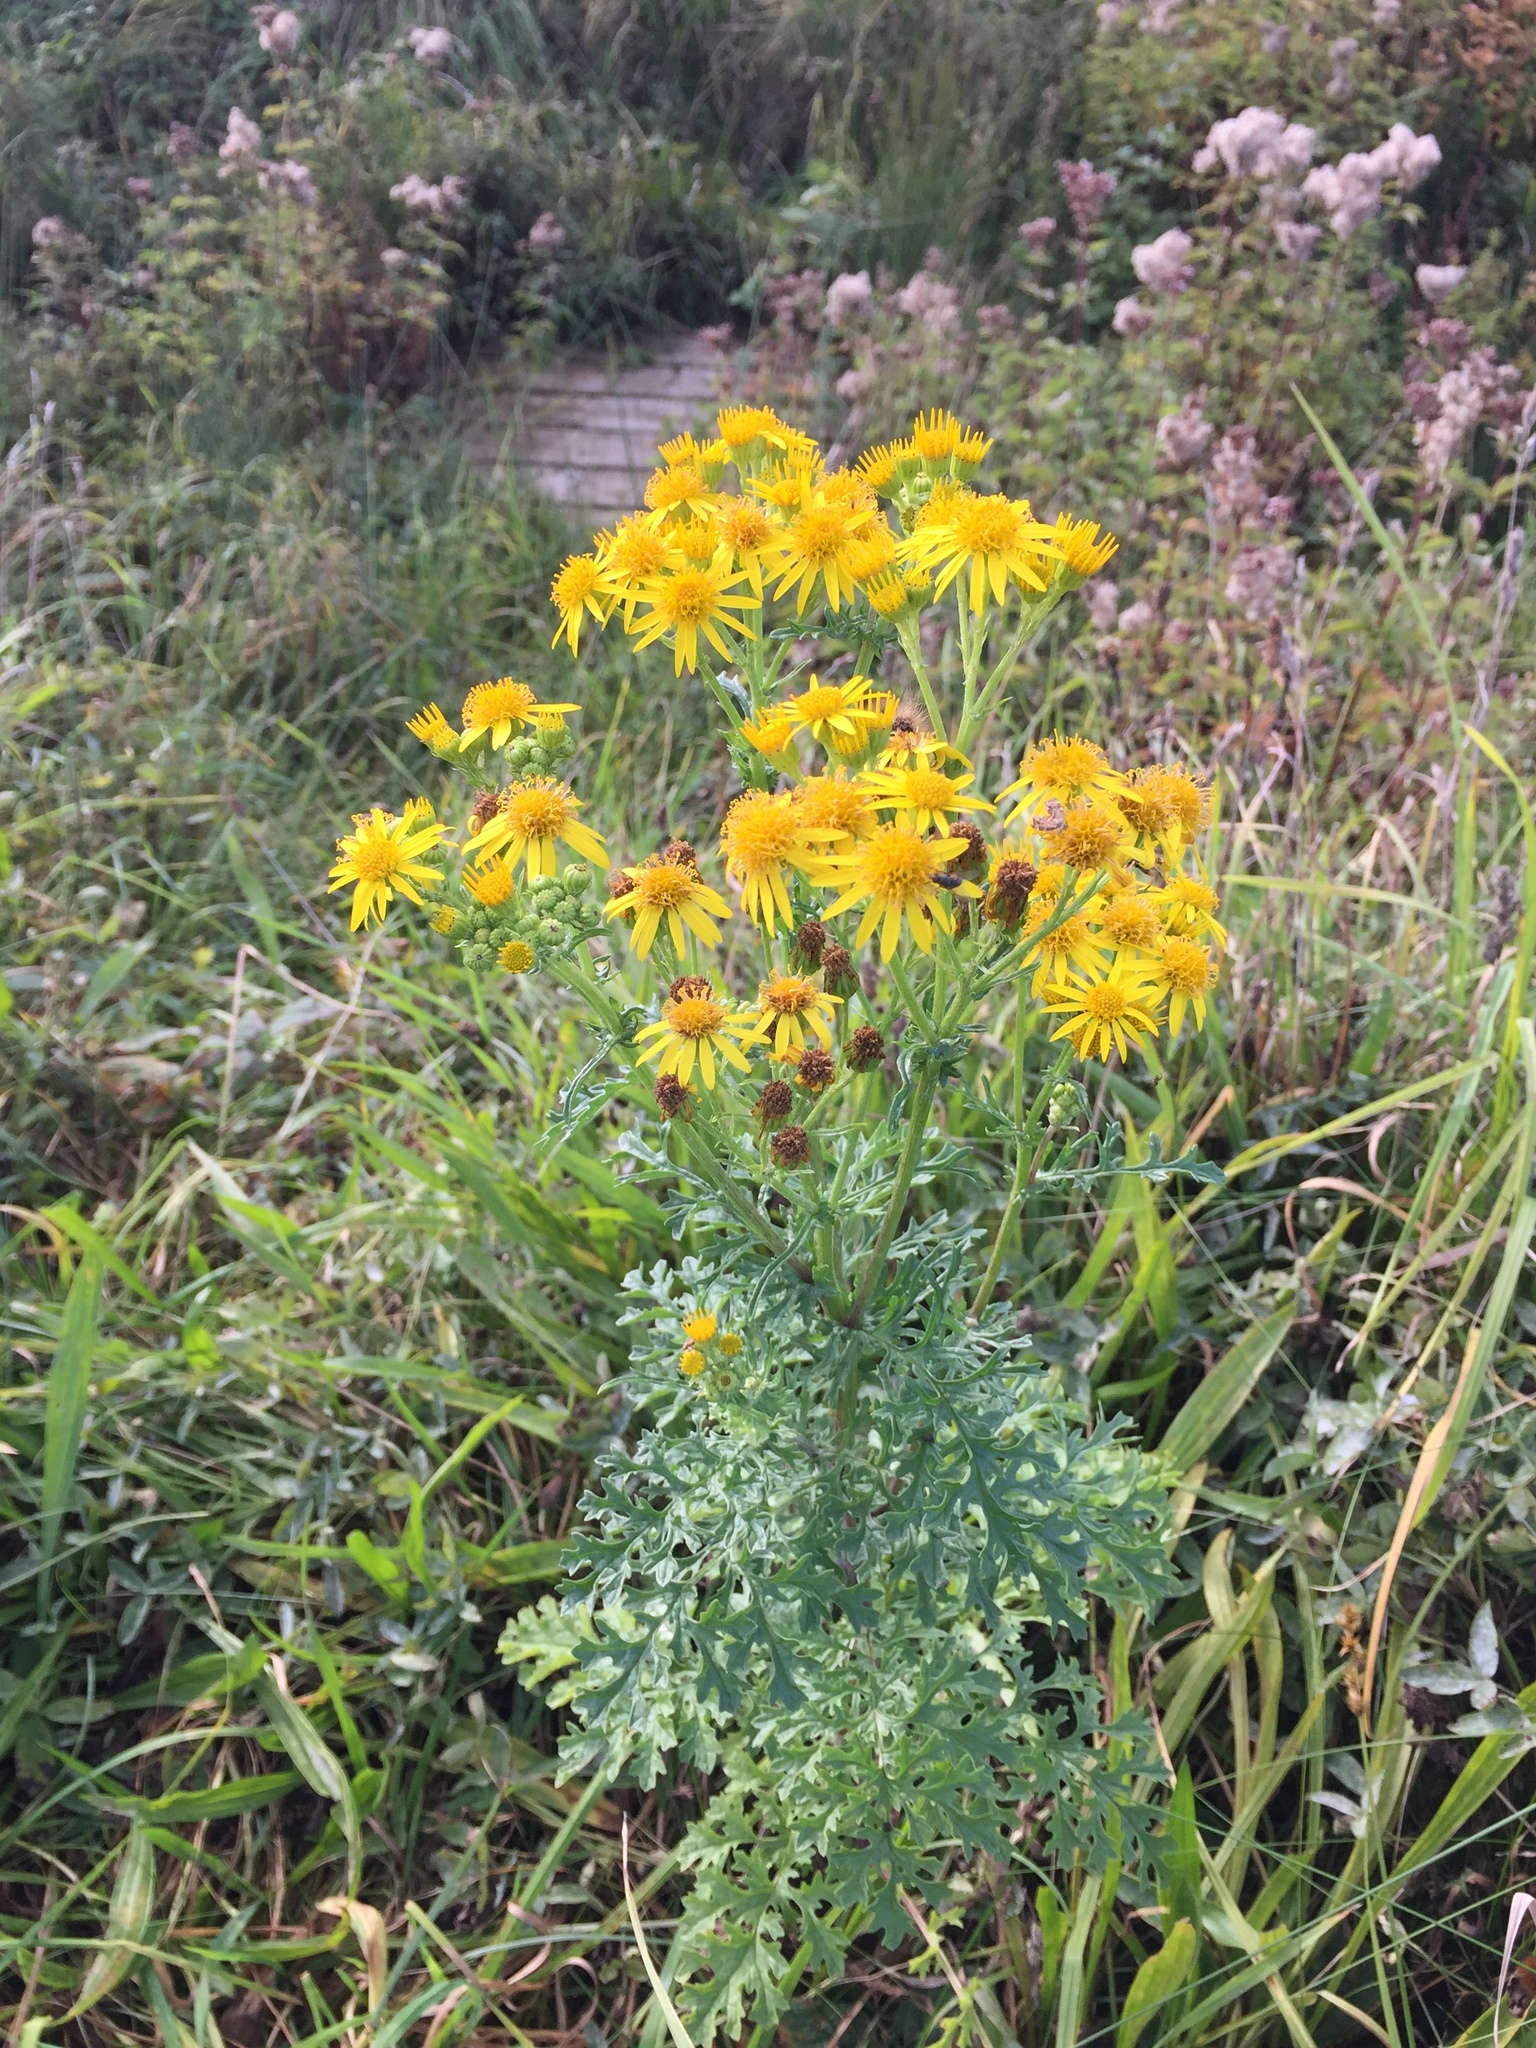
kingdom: Plantae
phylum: Tracheophyta
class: Magnoliopsida
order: Asterales
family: Asteraceae
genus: Jacobaea
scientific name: Jacobaea vulgaris
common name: Stinking willie
